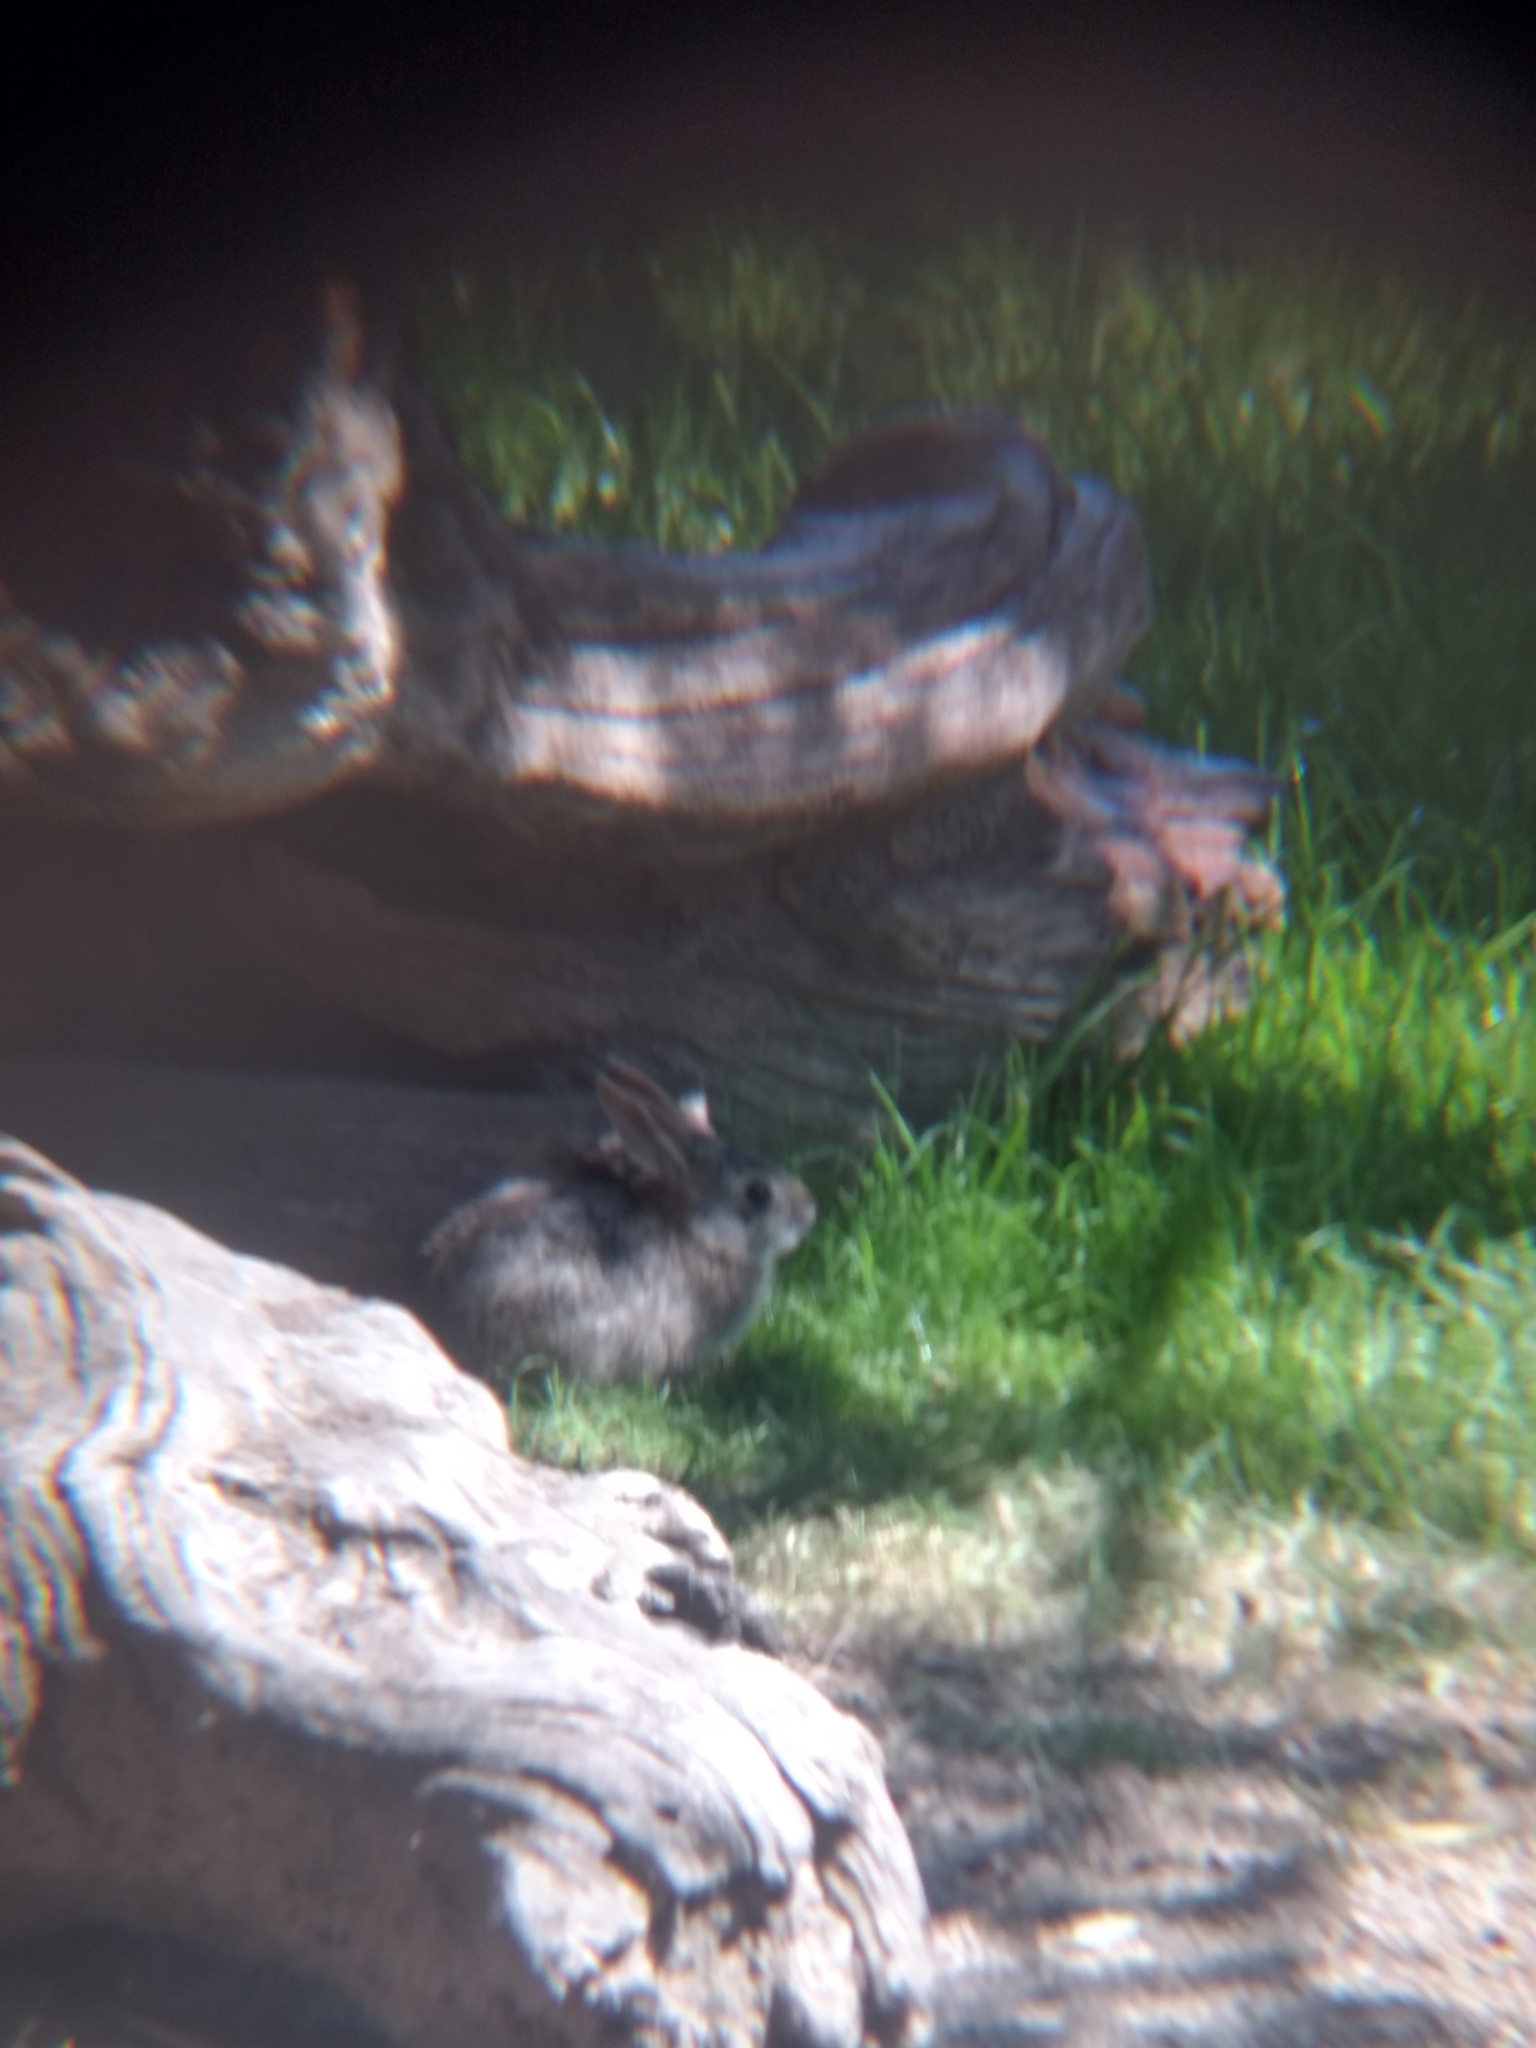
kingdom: Animalia
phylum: Chordata
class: Mammalia
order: Lagomorpha
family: Leporidae
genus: Sylvilagus
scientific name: Sylvilagus audubonii
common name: Desert cottontail
